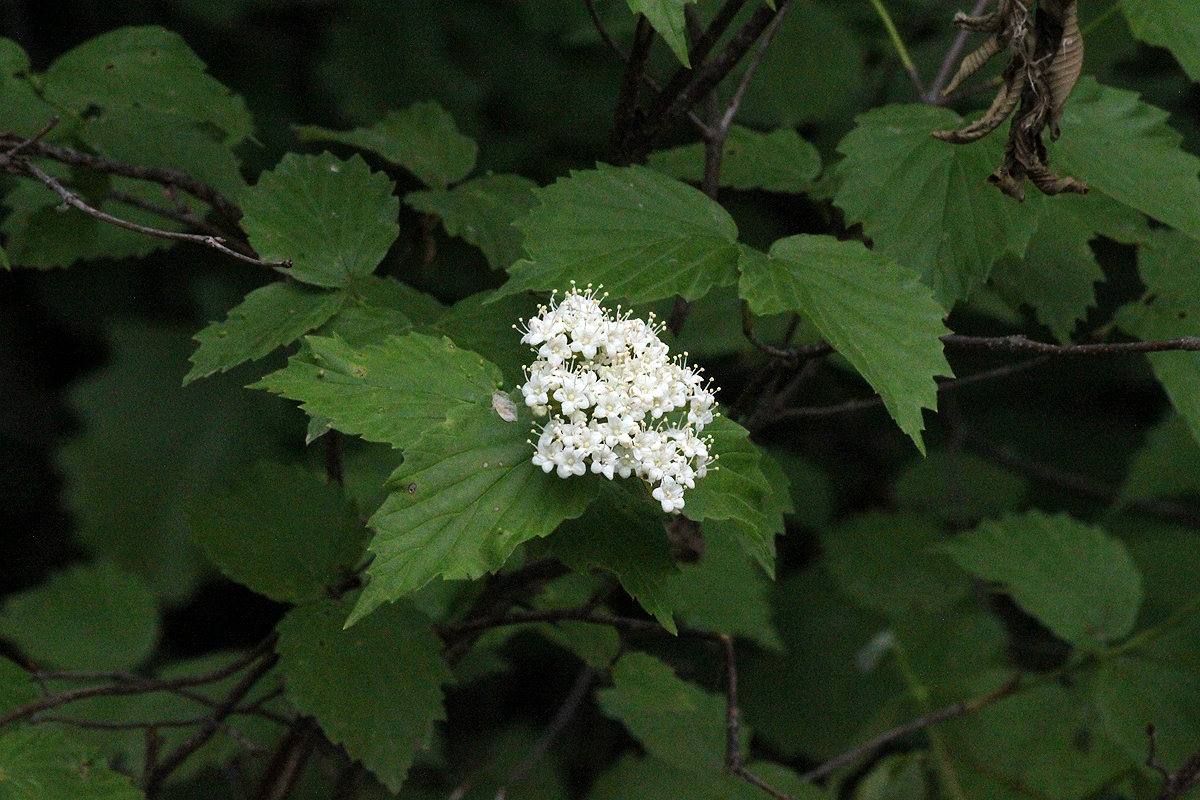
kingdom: Plantae
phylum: Tracheophyta
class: Magnoliopsida
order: Dipsacales
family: Viburnaceae
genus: Viburnum
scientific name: Viburnum rafinesqueanum
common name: Downy arrow-wood
